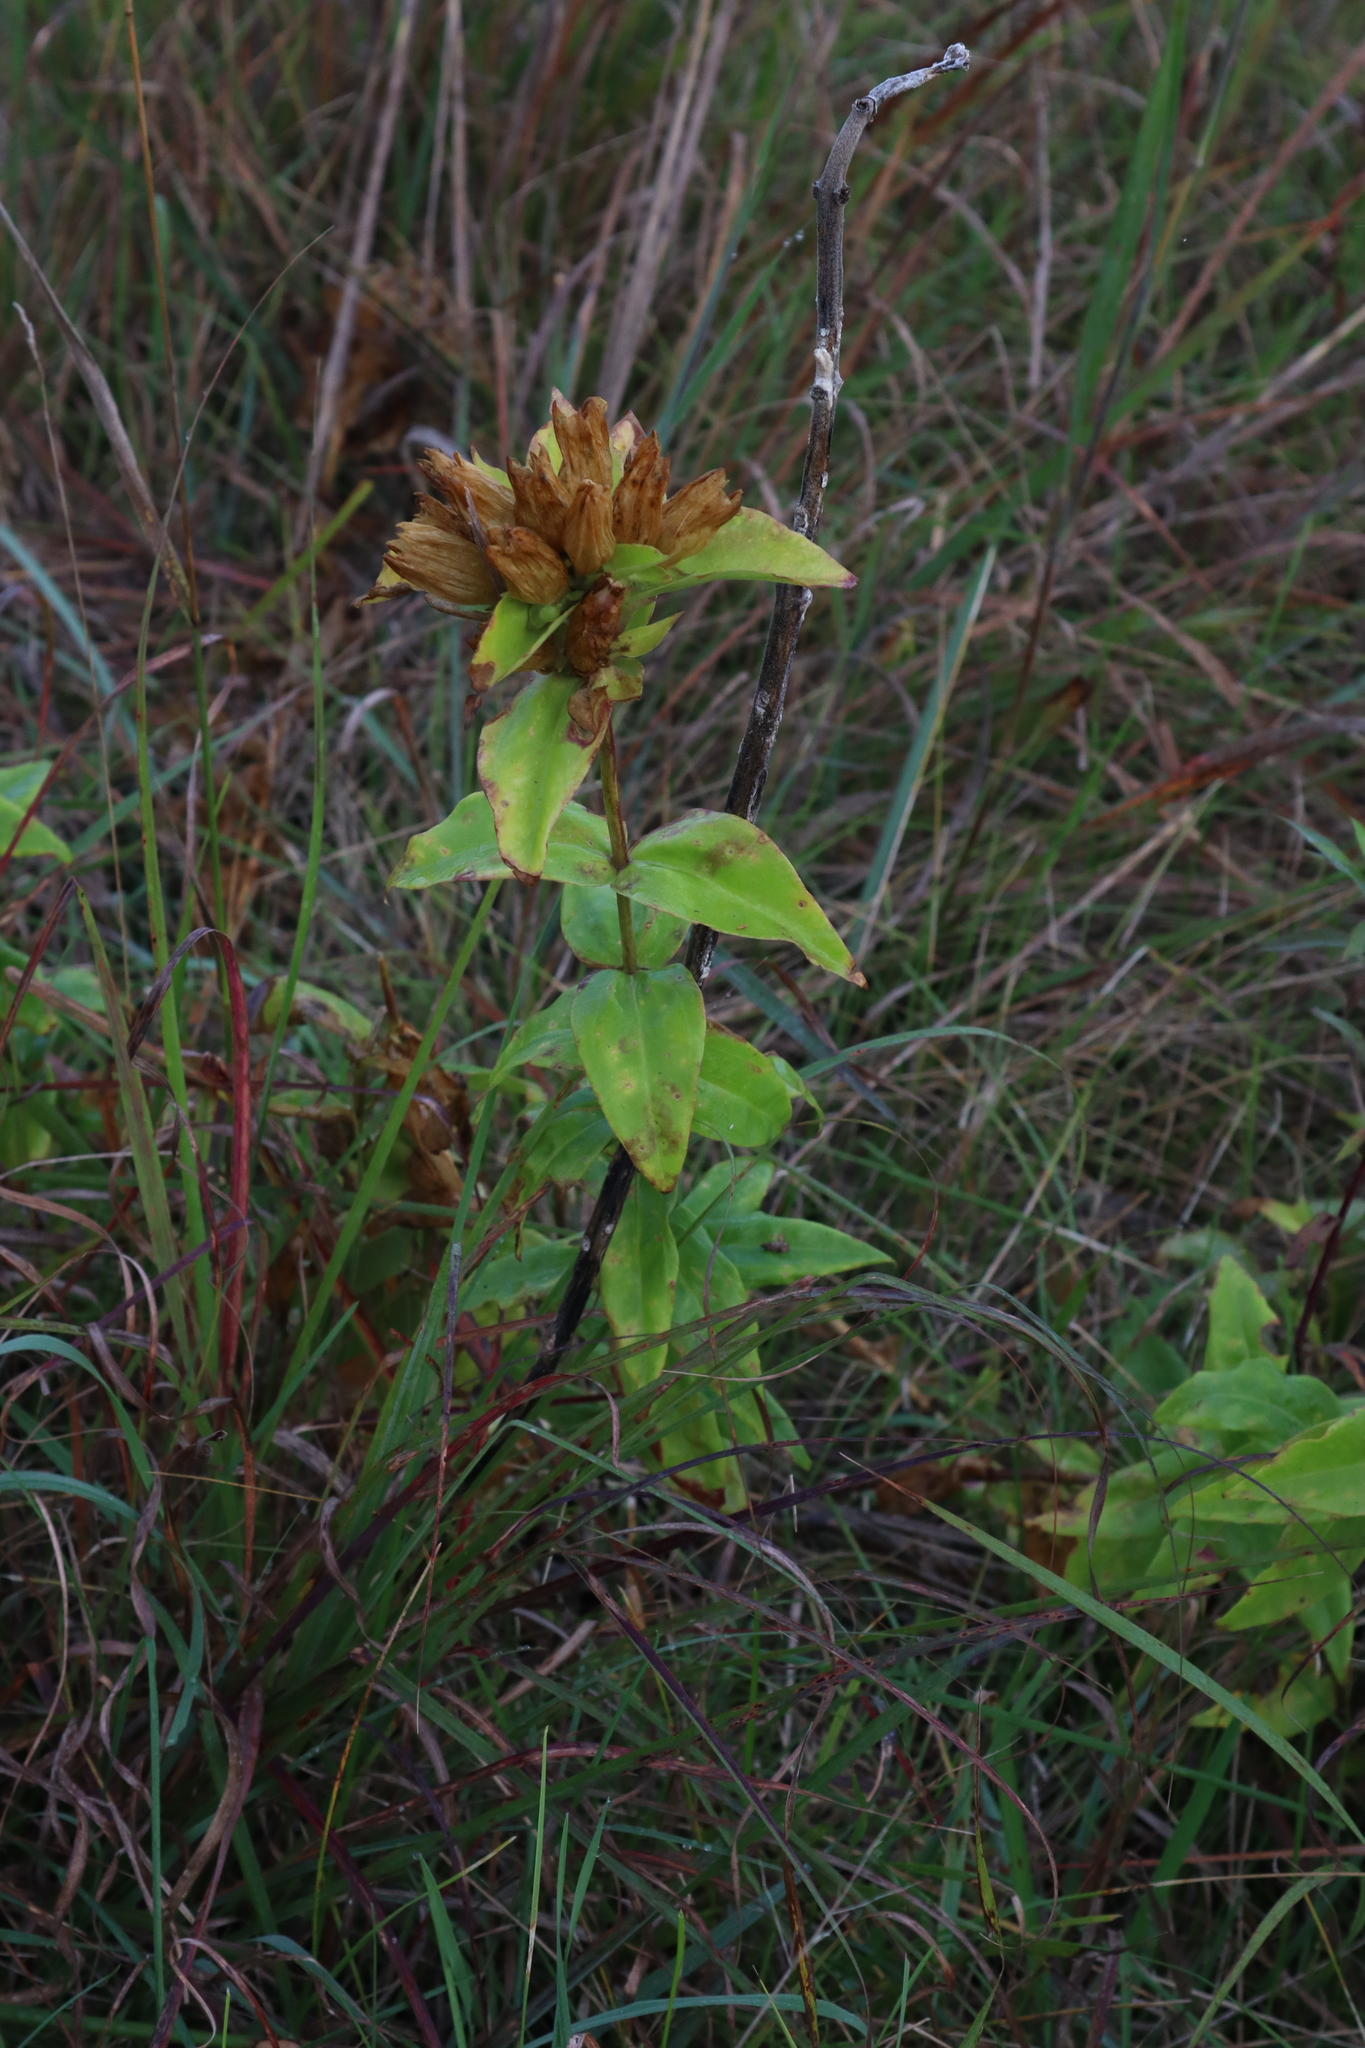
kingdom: Plantae
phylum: Tracheophyta
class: Magnoliopsida
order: Gentianales
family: Gentianaceae
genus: Gentiana
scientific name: Gentiana alba
